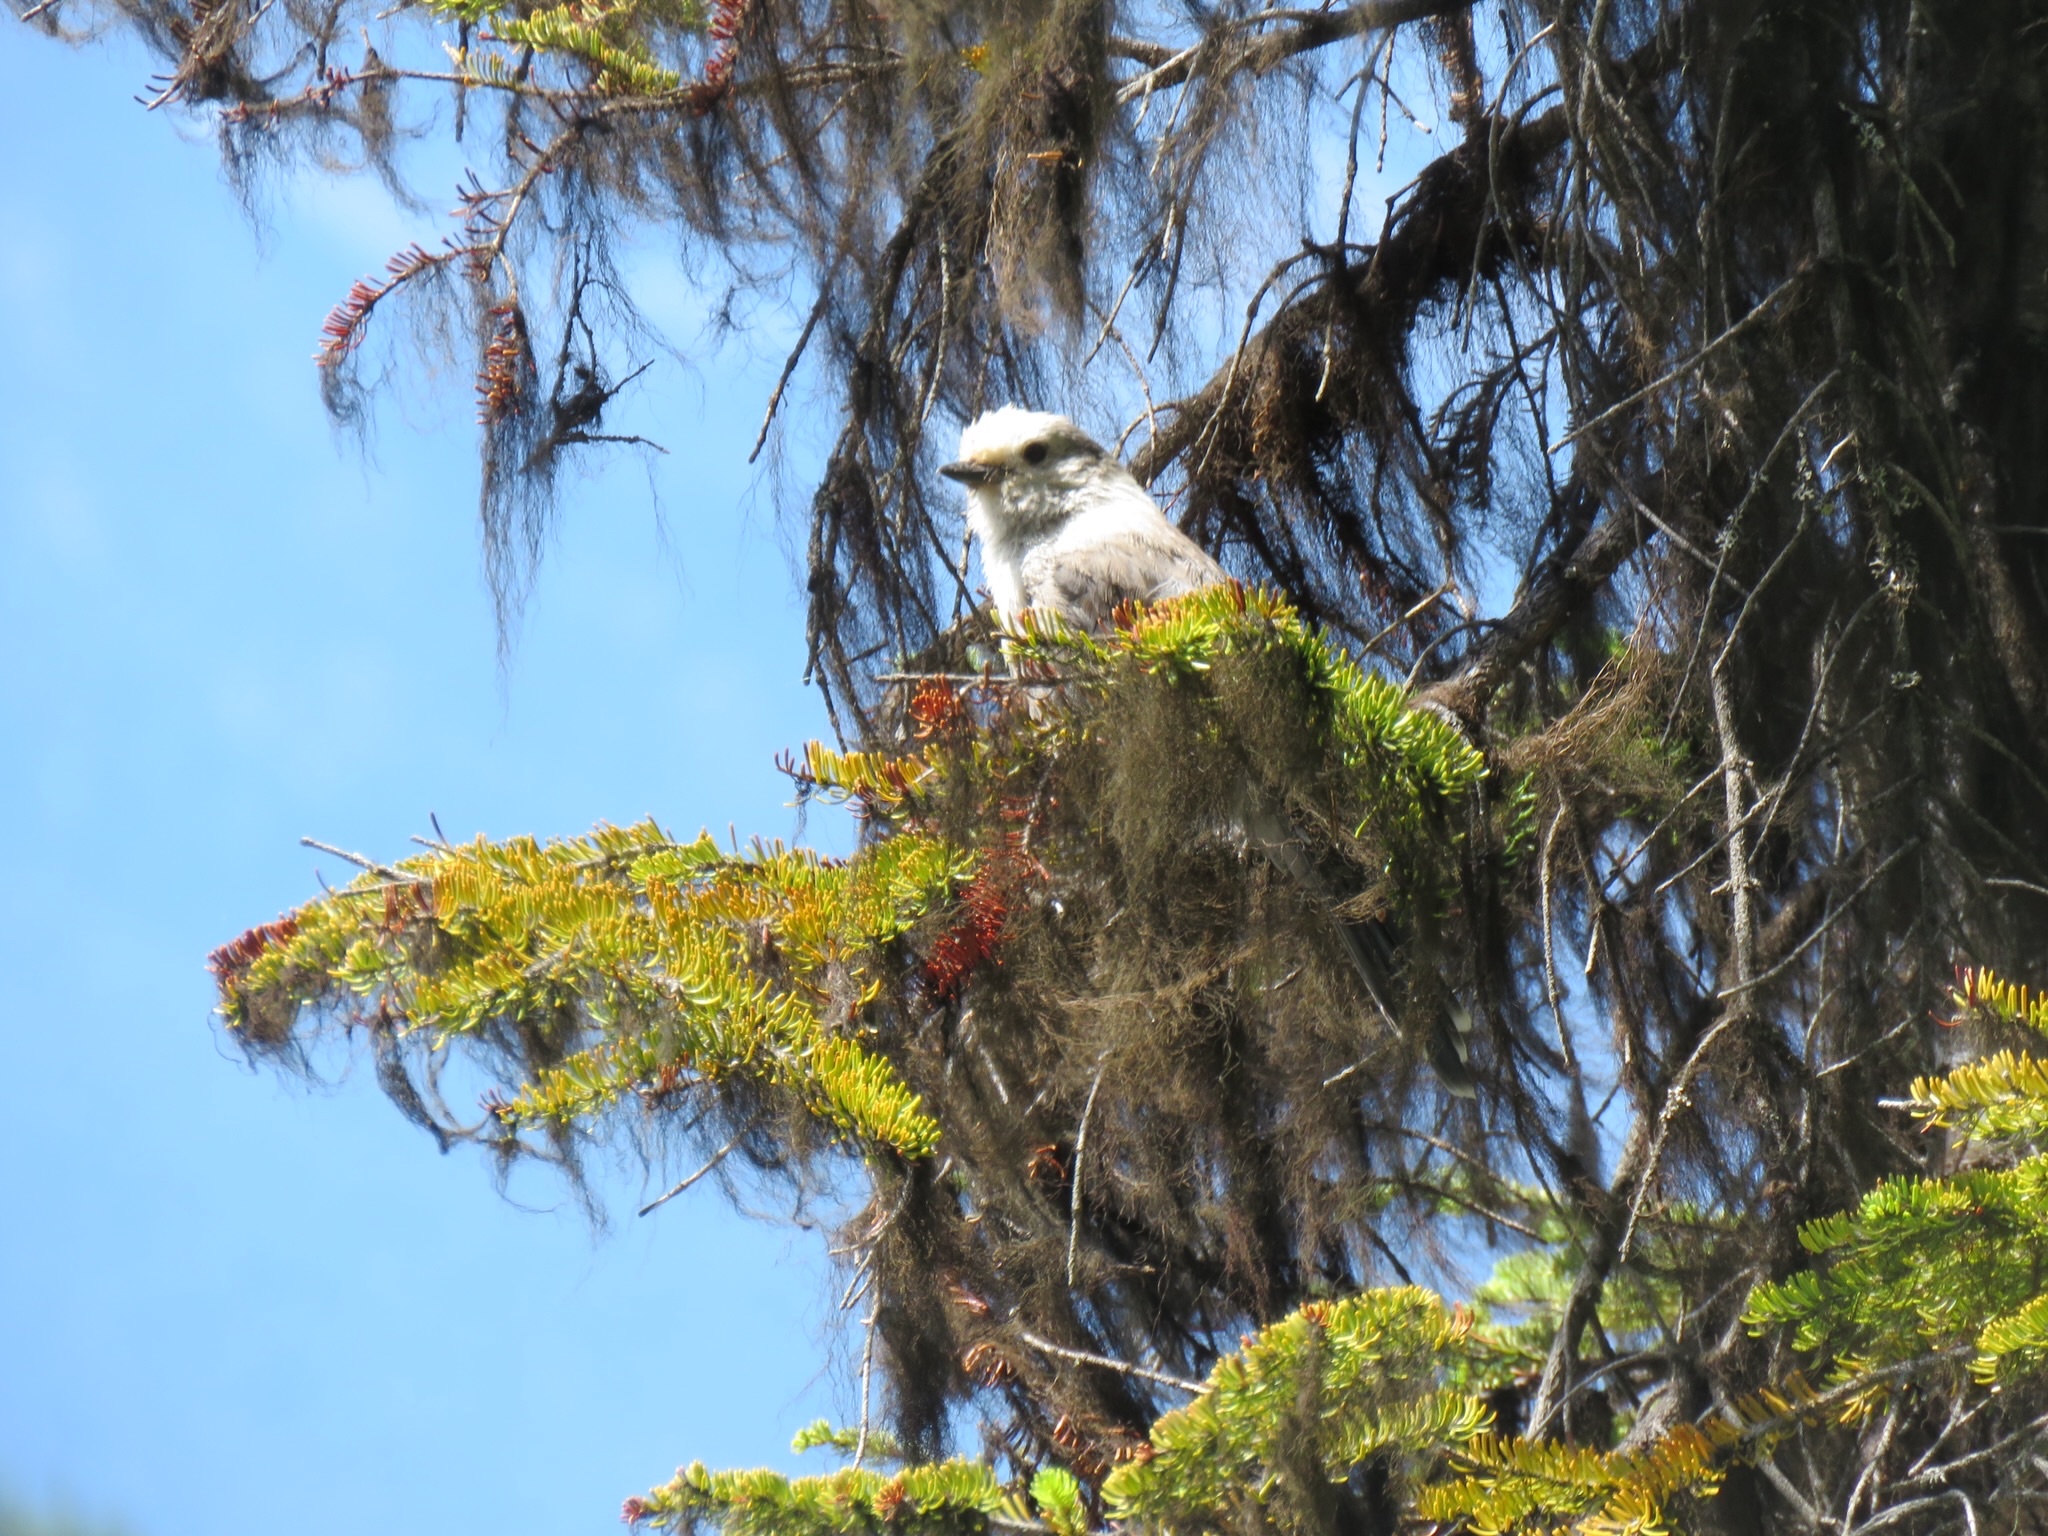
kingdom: Animalia
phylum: Chordata
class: Aves
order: Passeriformes
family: Corvidae
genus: Perisoreus
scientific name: Perisoreus canadensis
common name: Gray jay
